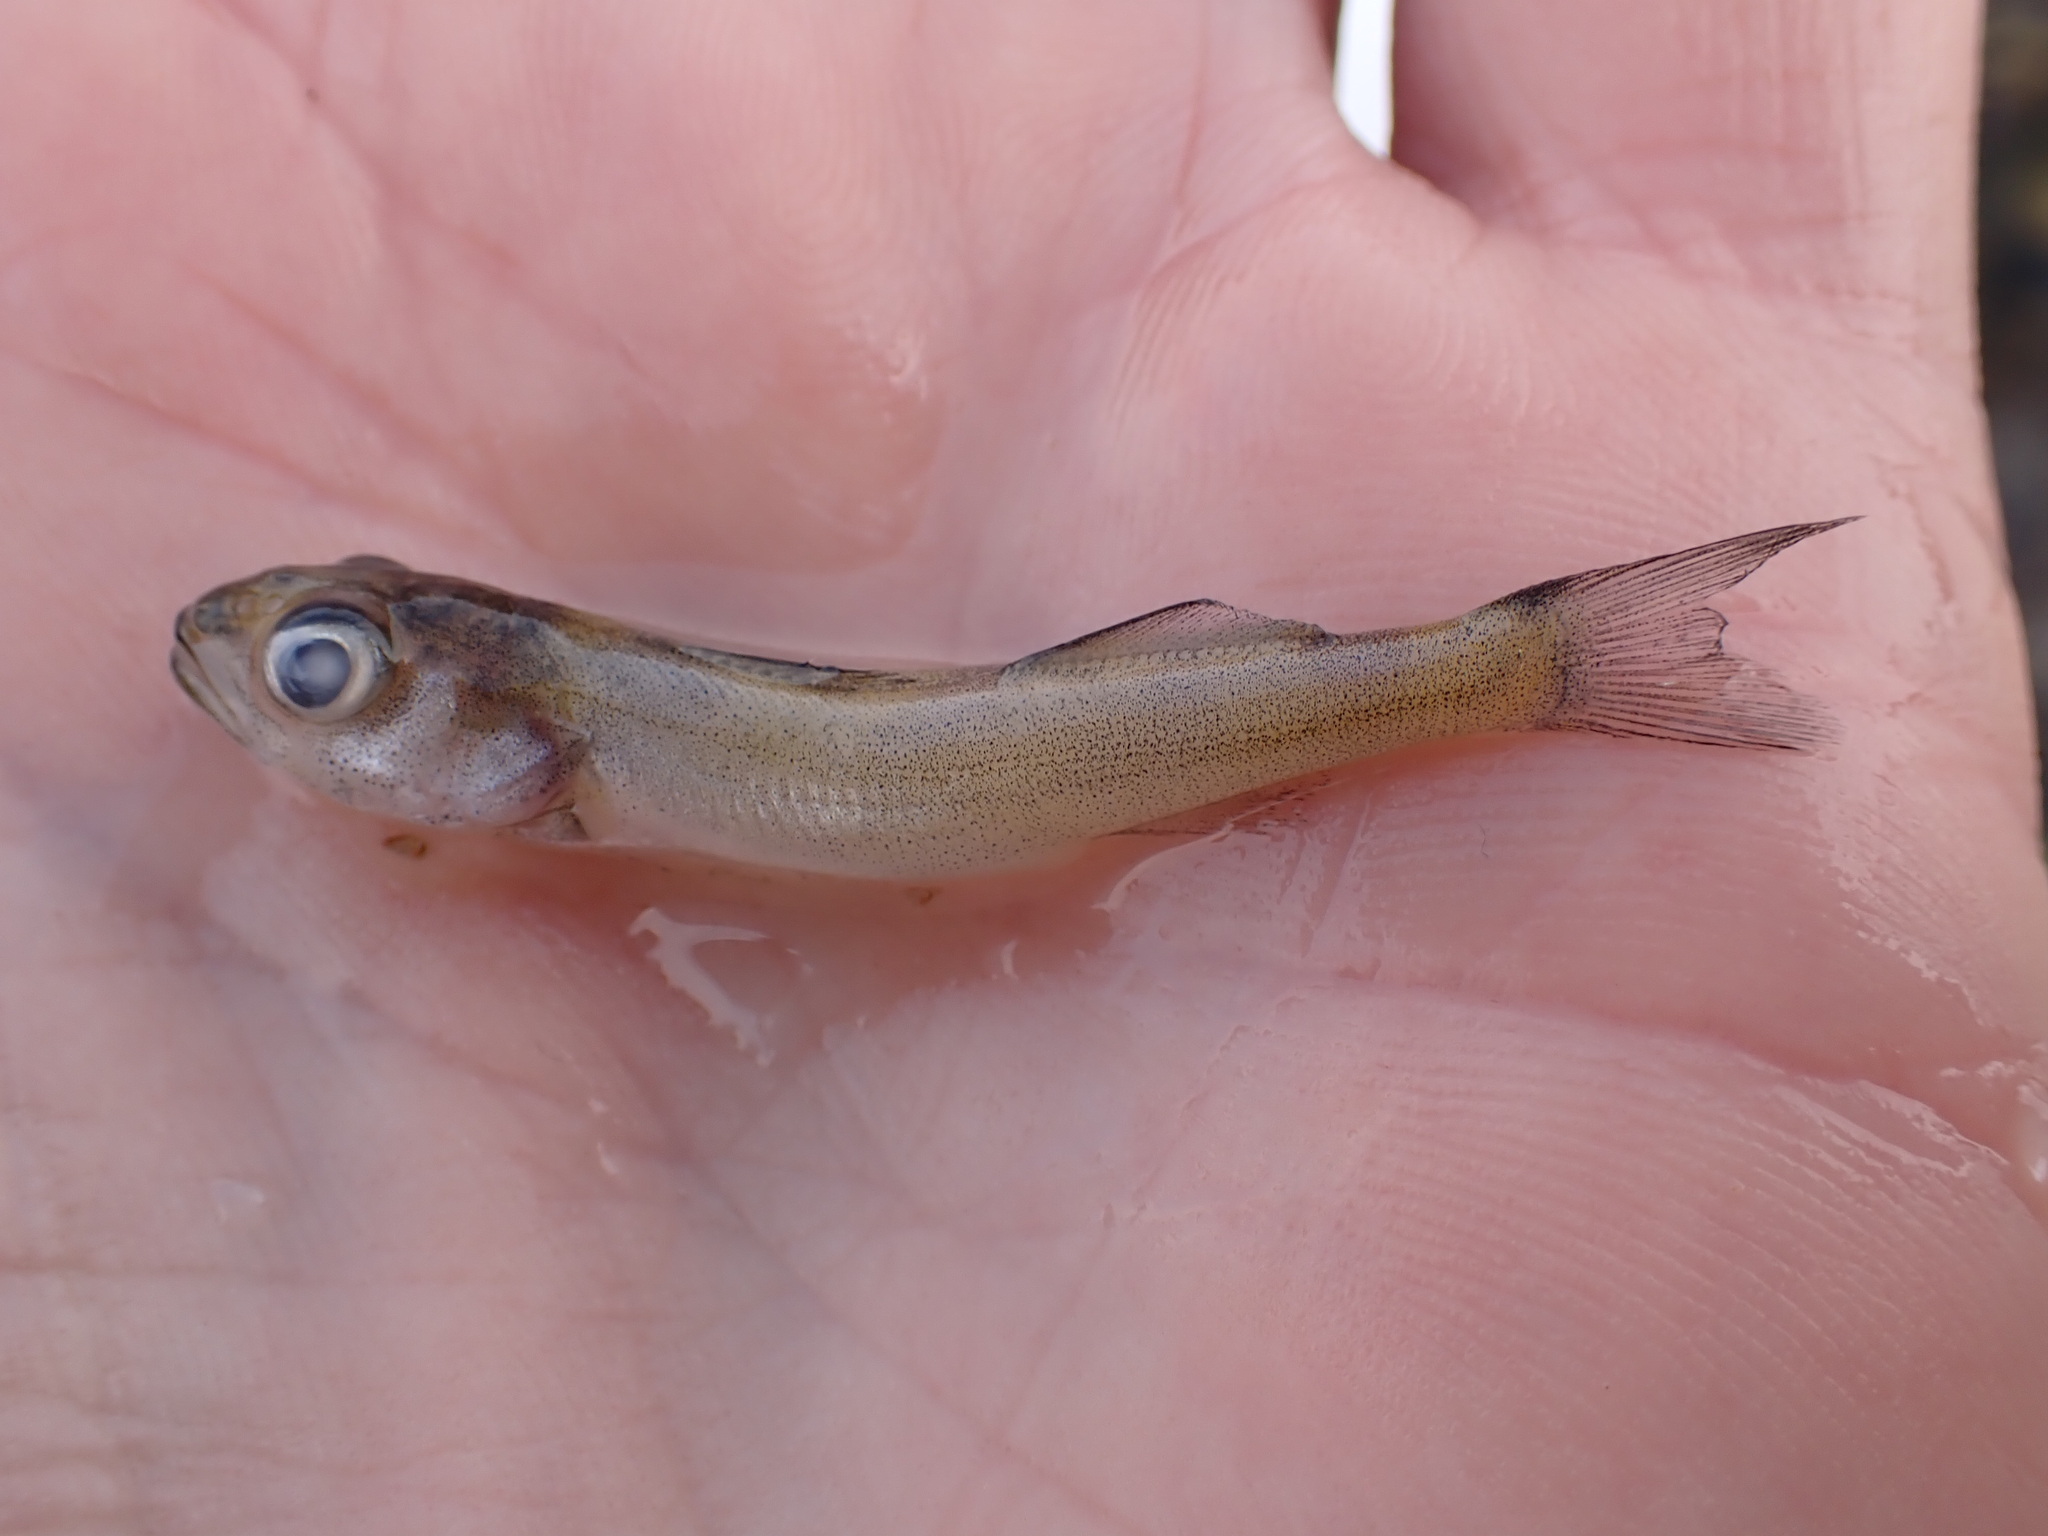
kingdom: Animalia
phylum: Chordata
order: Perciformes
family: Percidae
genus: Sander
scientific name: Sander vitreus
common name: Walleye
